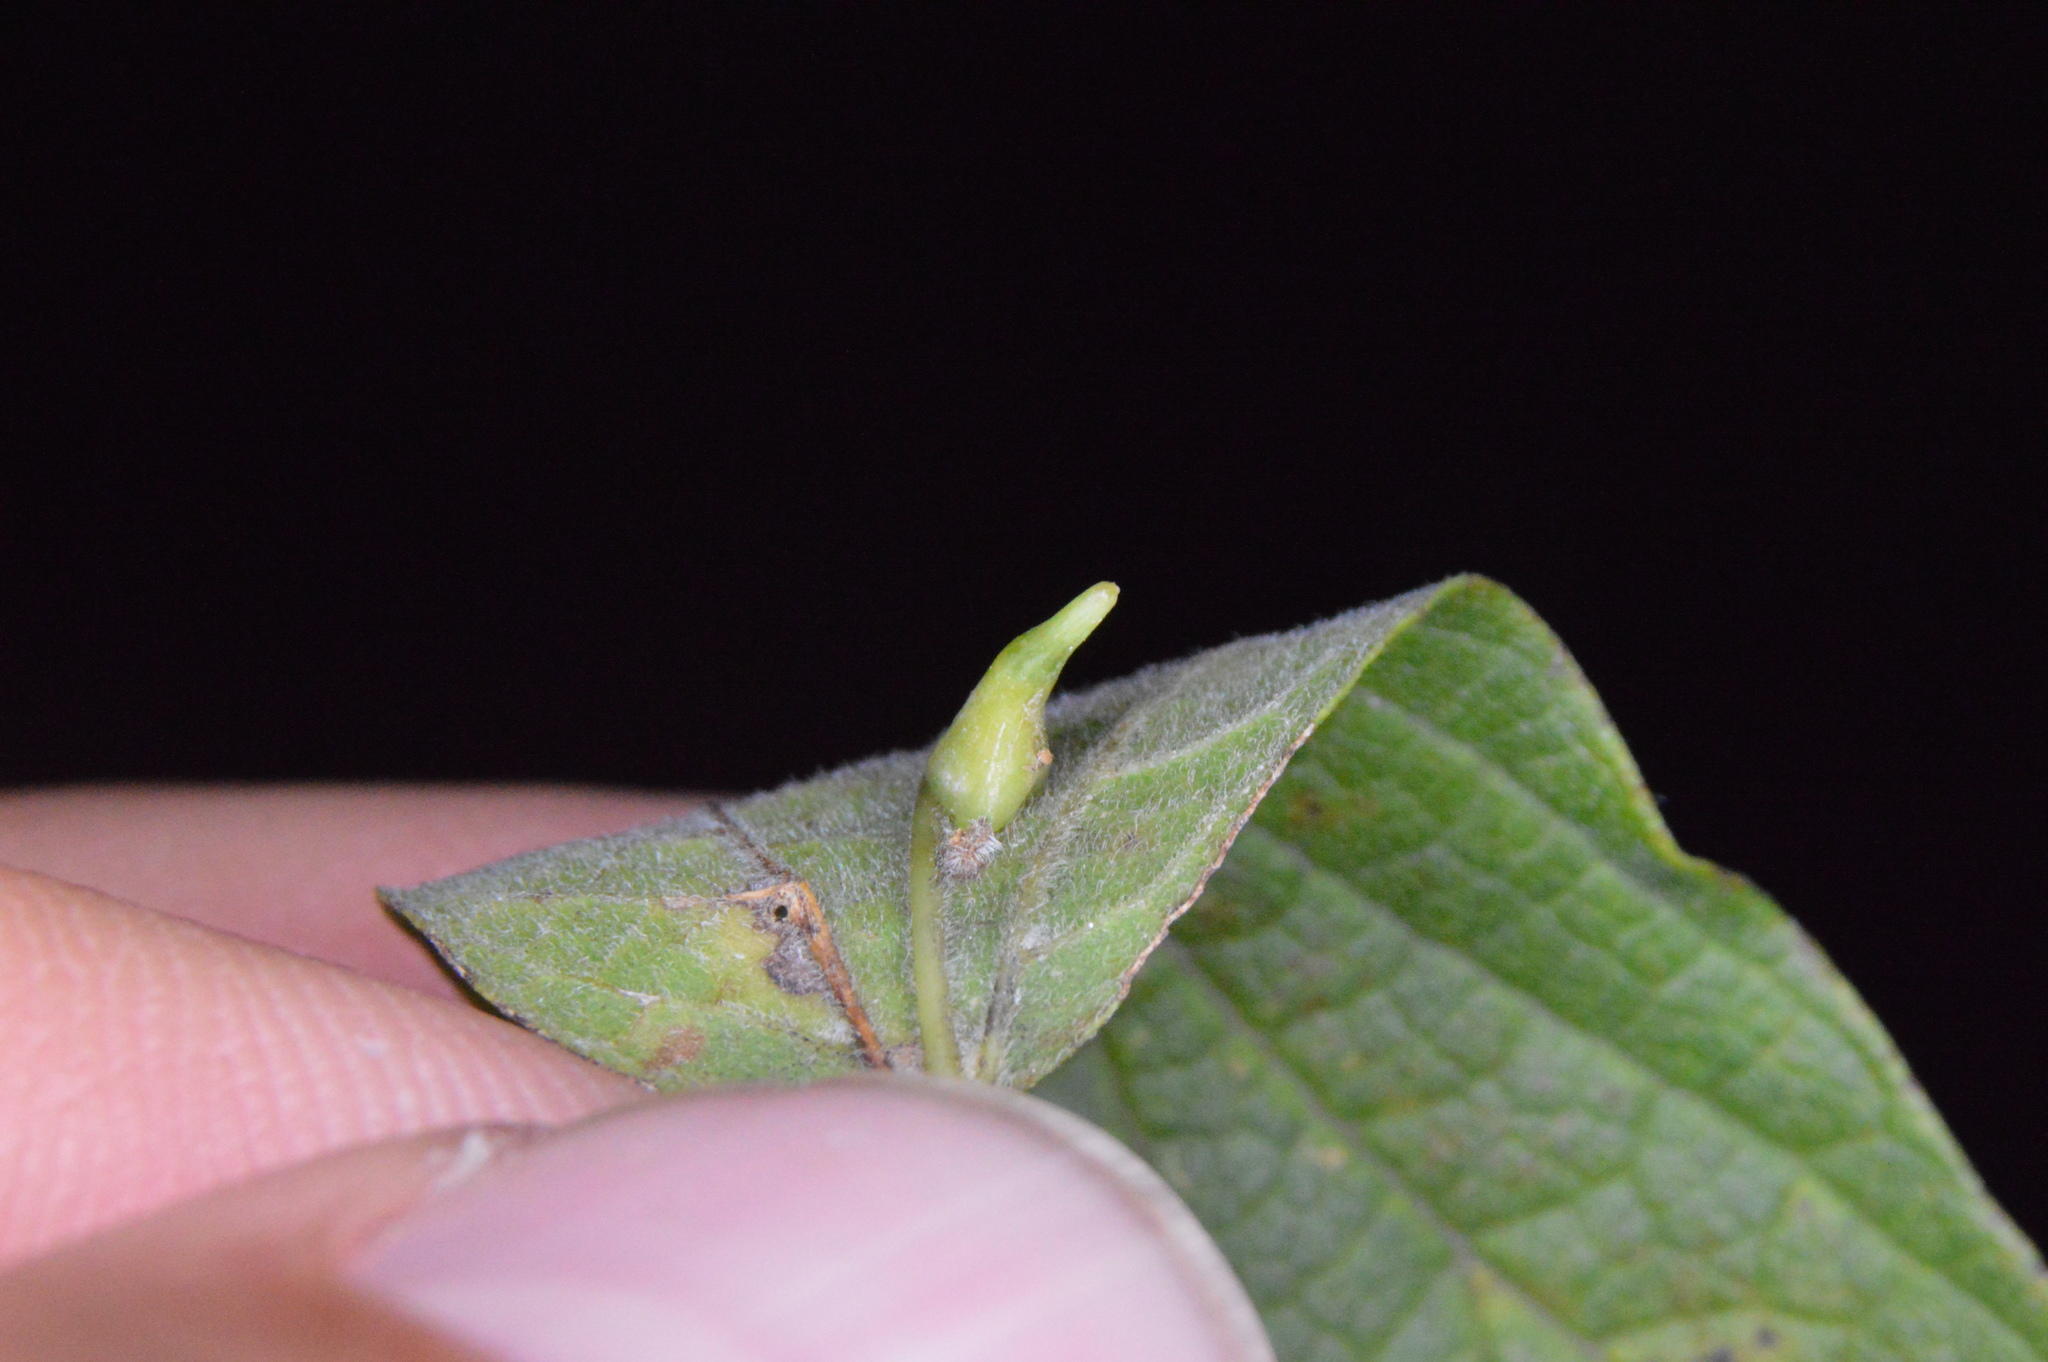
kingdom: Animalia
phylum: Arthropoda
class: Insecta
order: Diptera
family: Cecidomyiidae
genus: Celticecis
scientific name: Celticecis subulata
